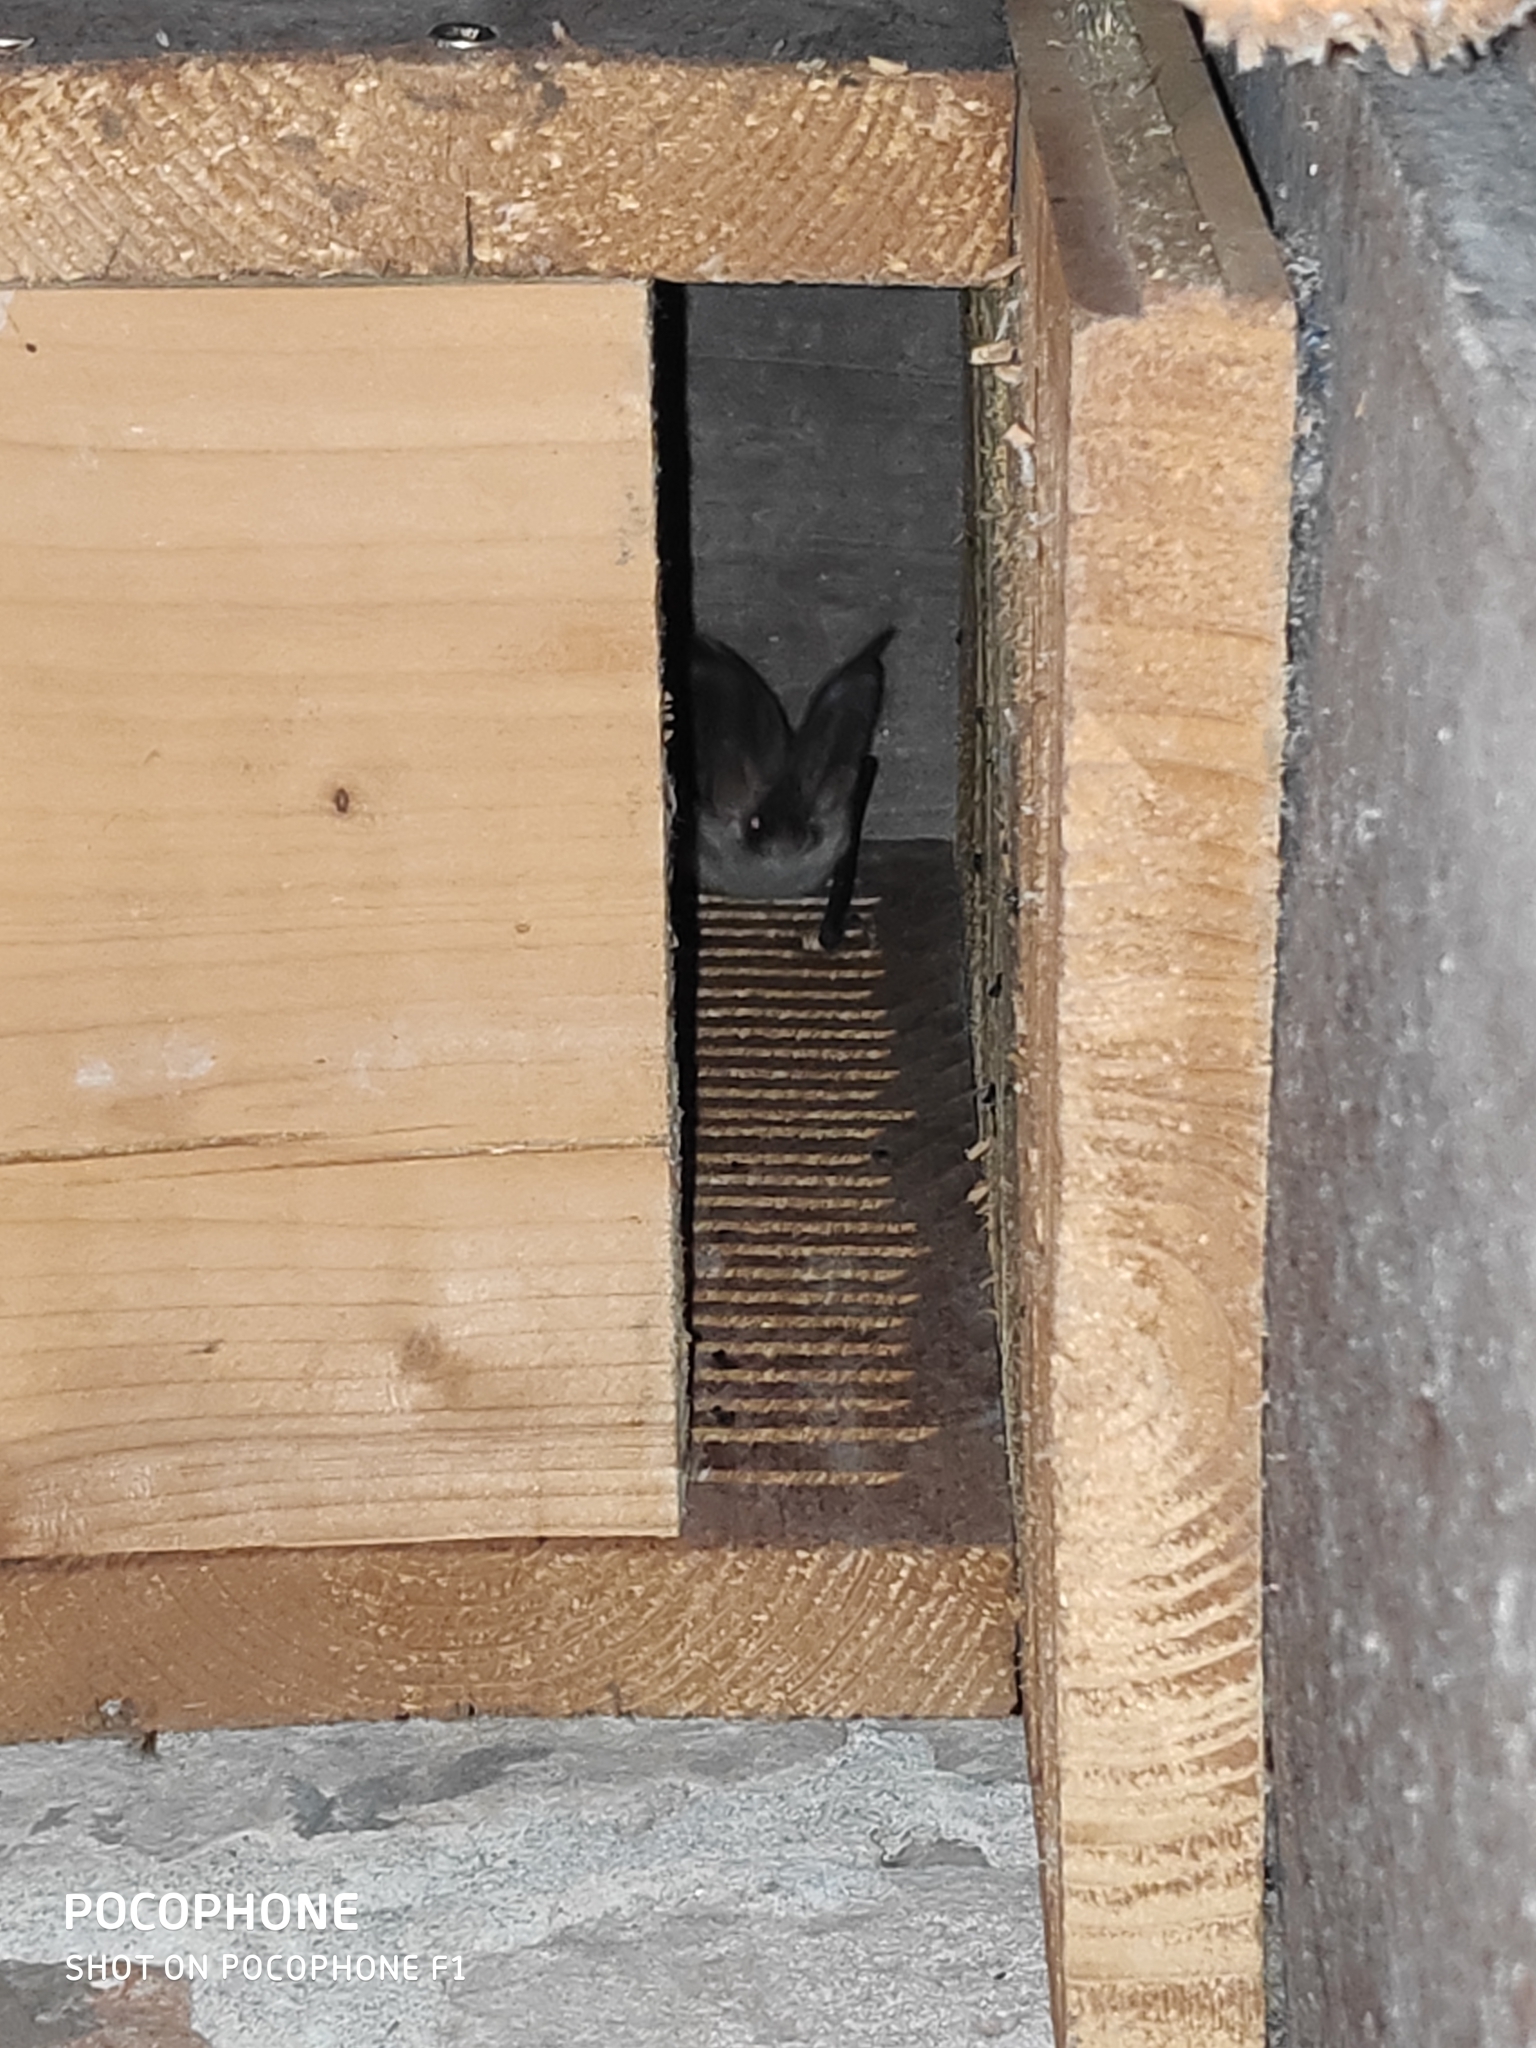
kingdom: Animalia
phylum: Chordata
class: Mammalia
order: Chiroptera
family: Vespertilionidae
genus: Plecotus
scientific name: Plecotus austriacus
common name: Grey long-eared bat
